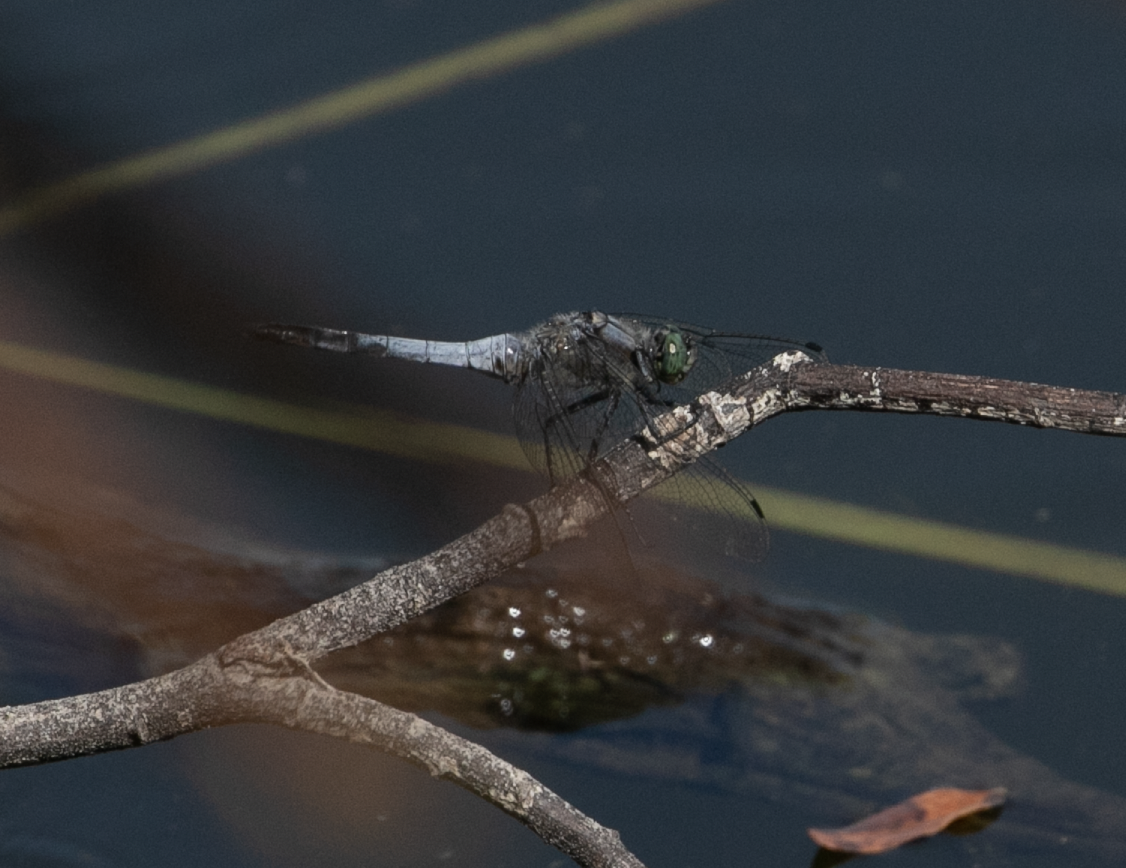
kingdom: Animalia
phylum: Arthropoda
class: Insecta
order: Odonata
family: Libellulidae
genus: Orthetrum
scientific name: Orthetrum cancellatum
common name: Black-tailed skimmer
